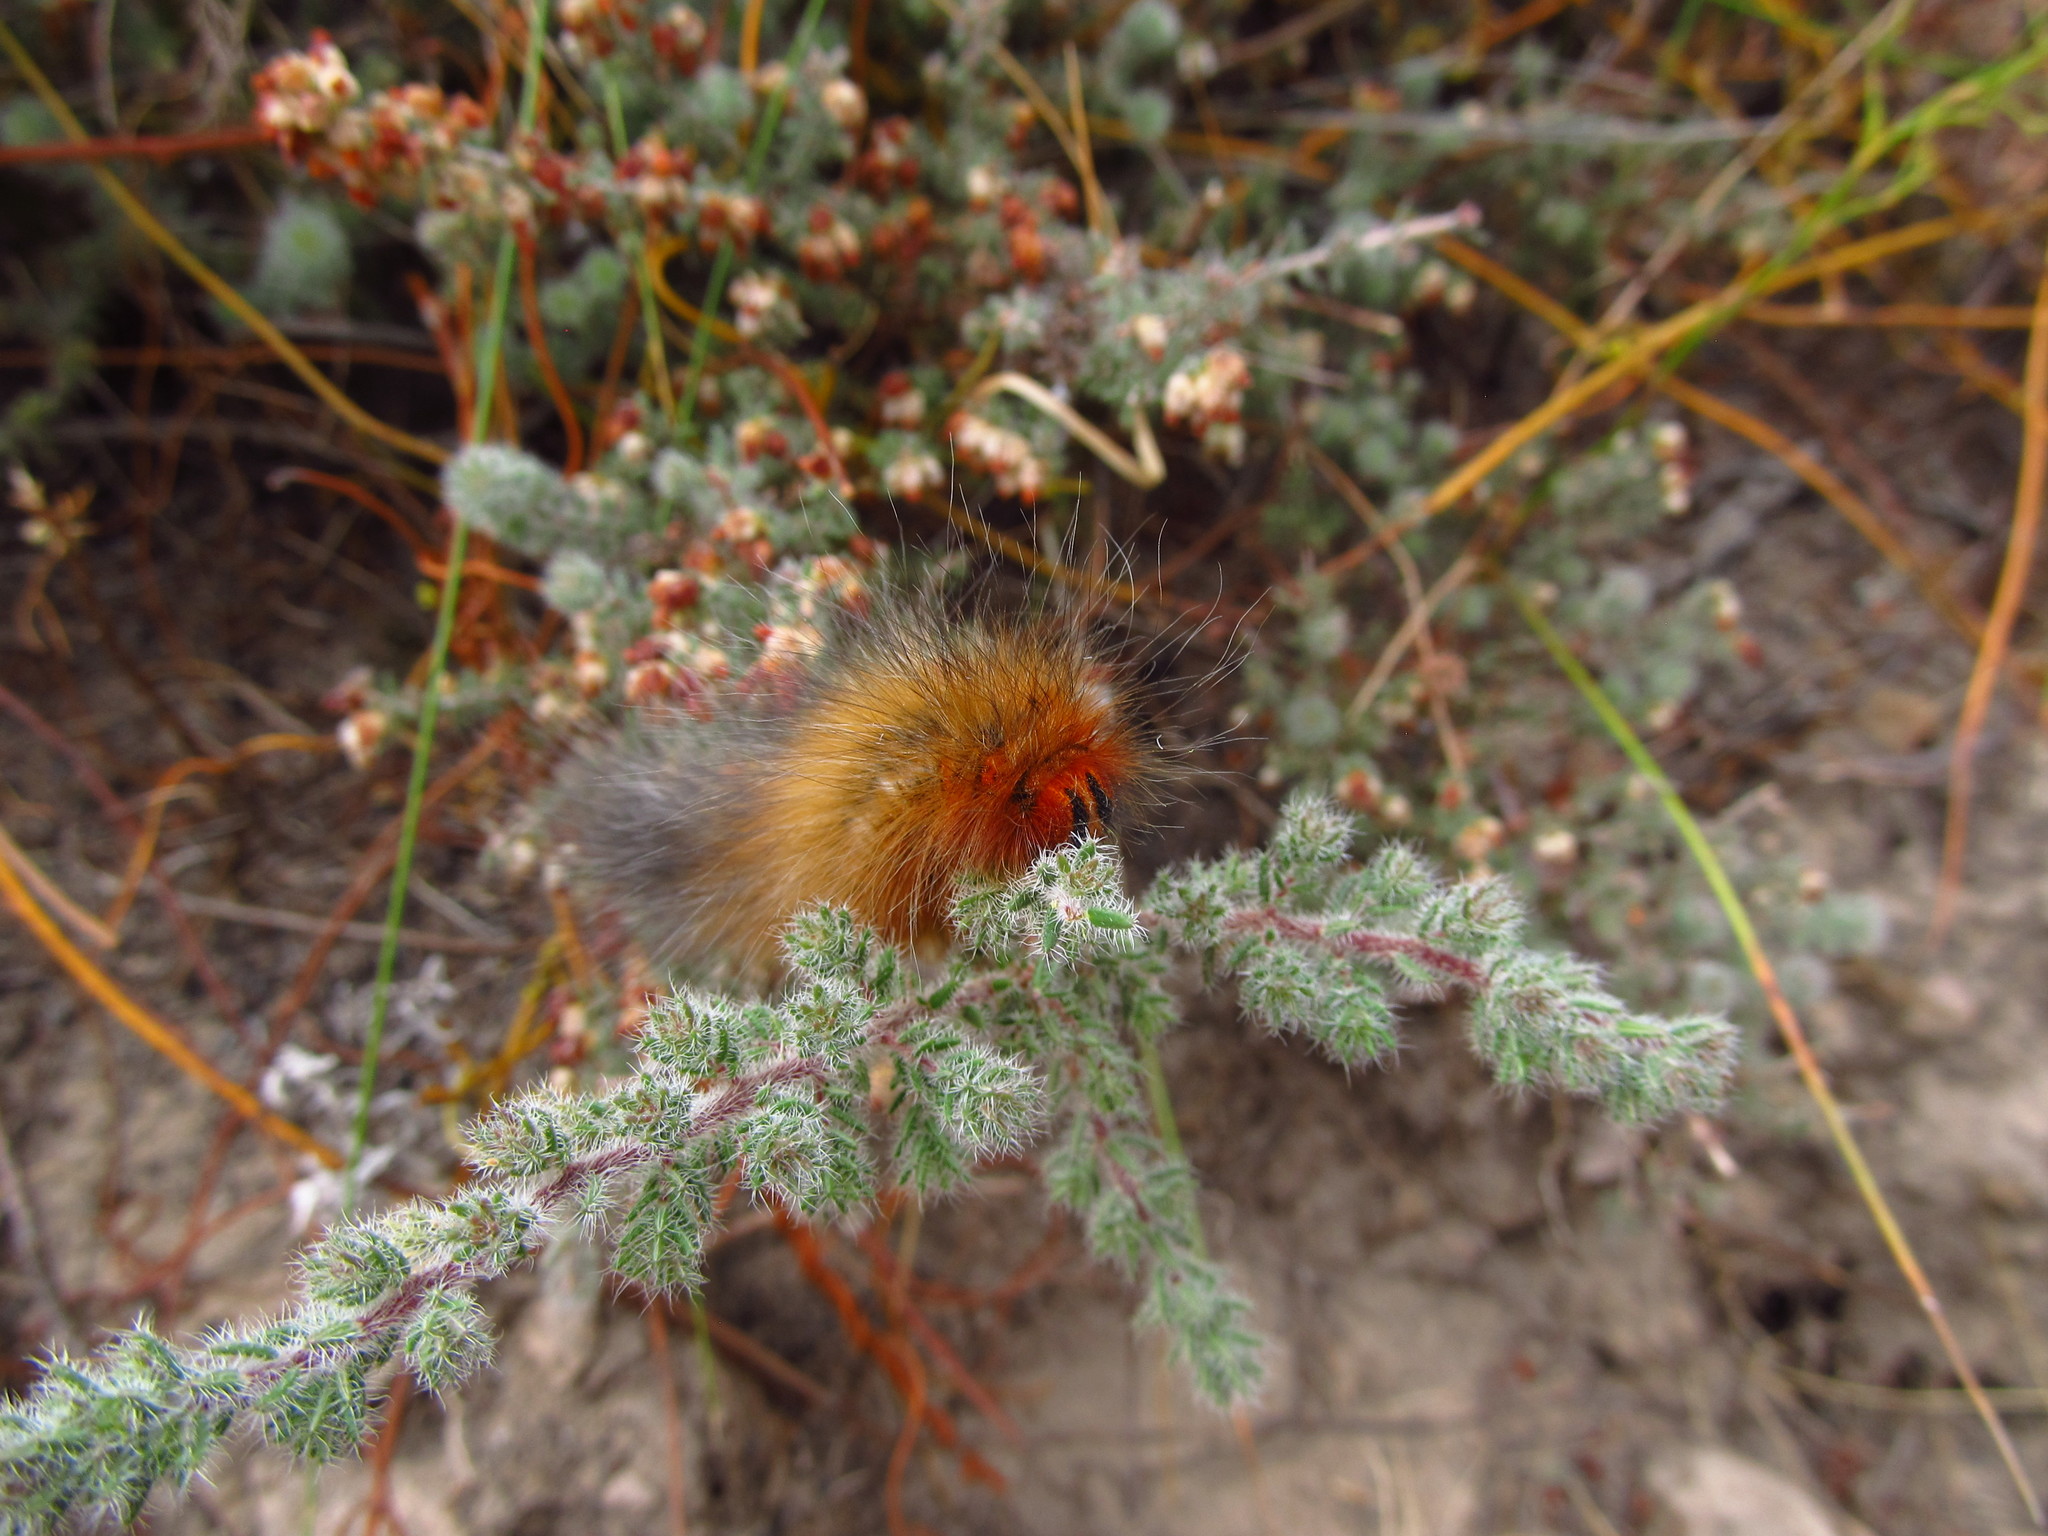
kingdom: Animalia
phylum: Arthropoda
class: Insecta
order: Lepidoptera
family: Lasiocampidae
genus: Mesocelis
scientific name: Mesocelis monticola
